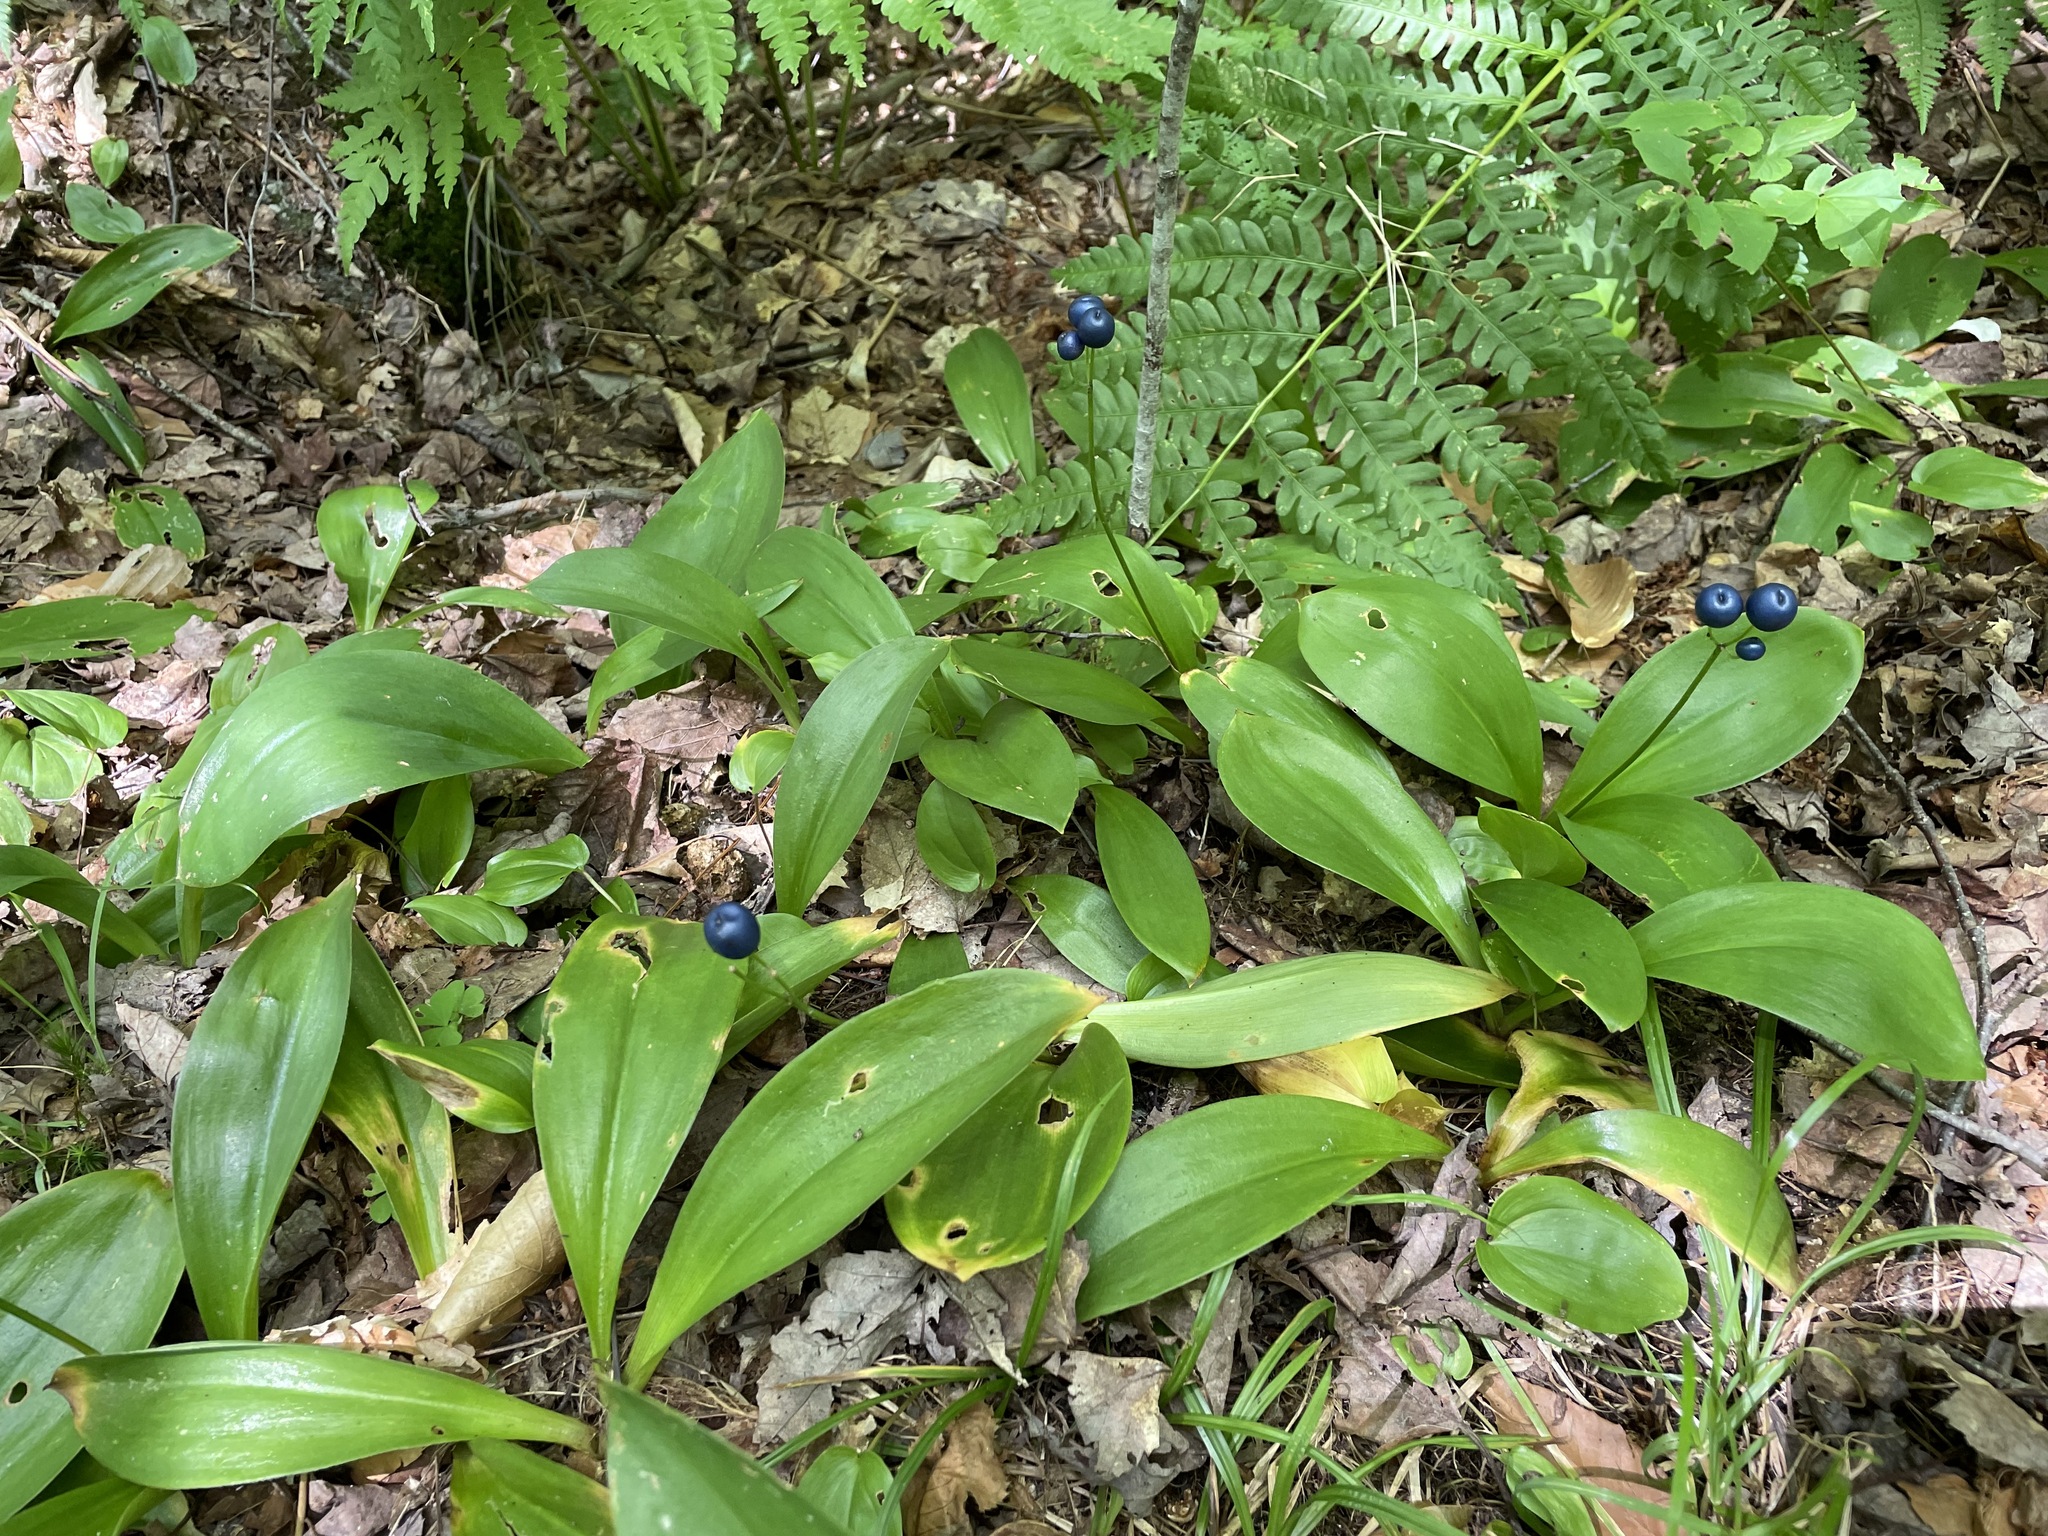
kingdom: Plantae
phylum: Tracheophyta
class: Liliopsida
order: Liliales
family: Liliaceae
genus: Clintonia
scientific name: Clintonia borealis
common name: Yellow clintonia
